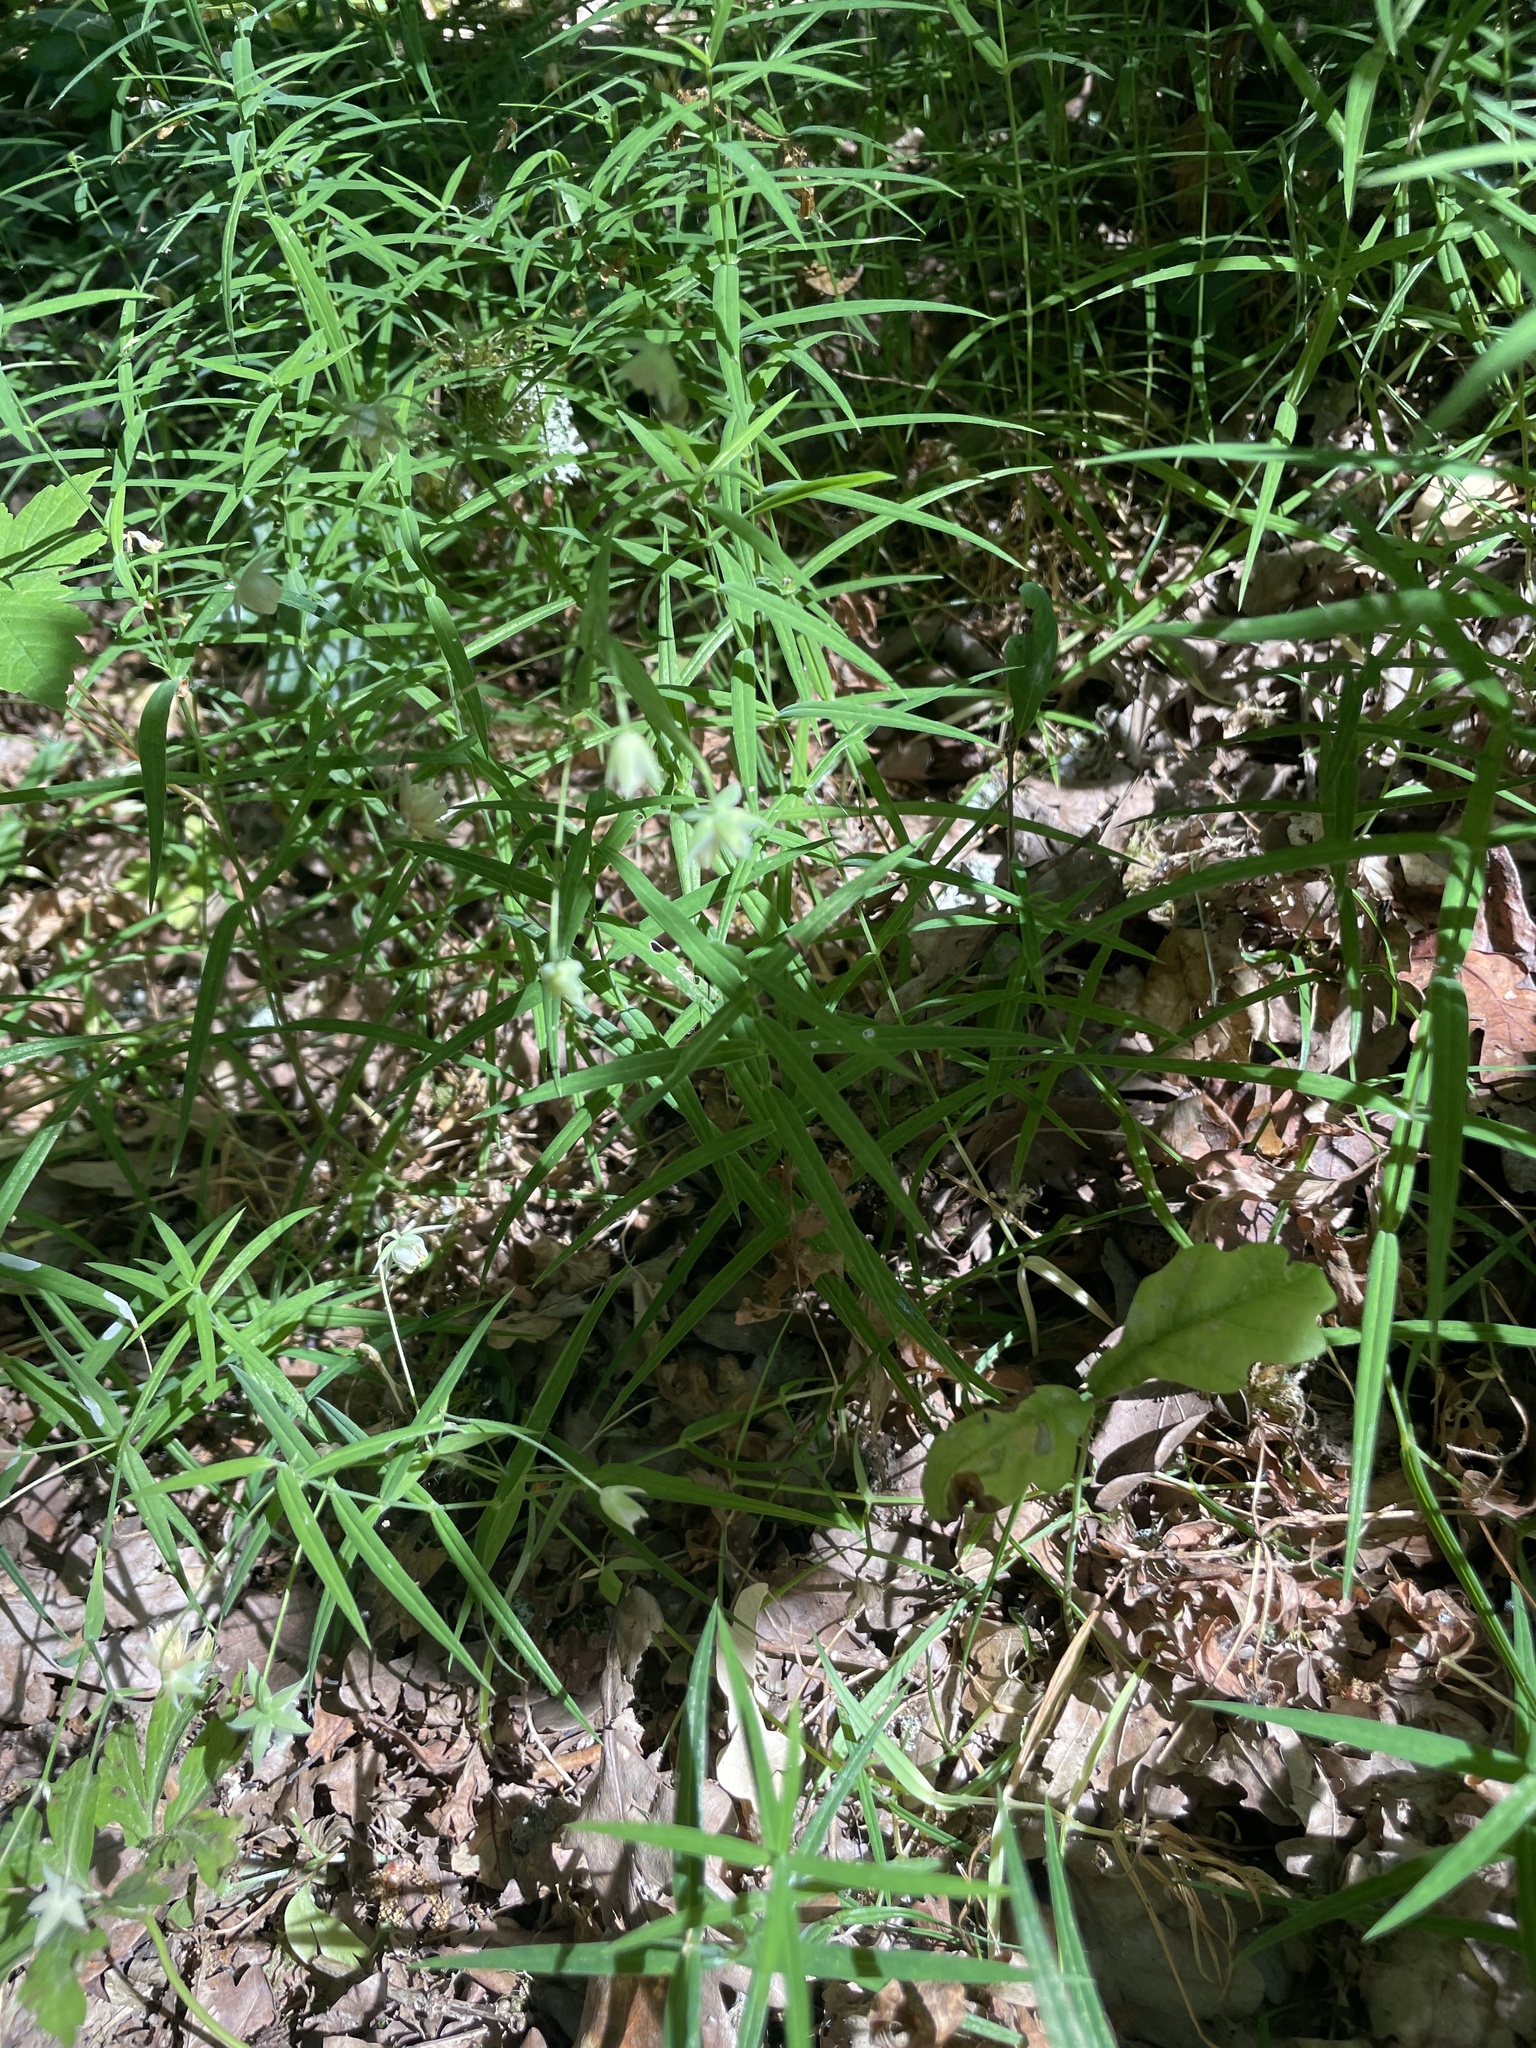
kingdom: Plantae
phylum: Tracheophyta
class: Magnoliopsida
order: Caryophyllales
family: Caryophyllaceae
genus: Rabelera
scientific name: Rabelera holostea
